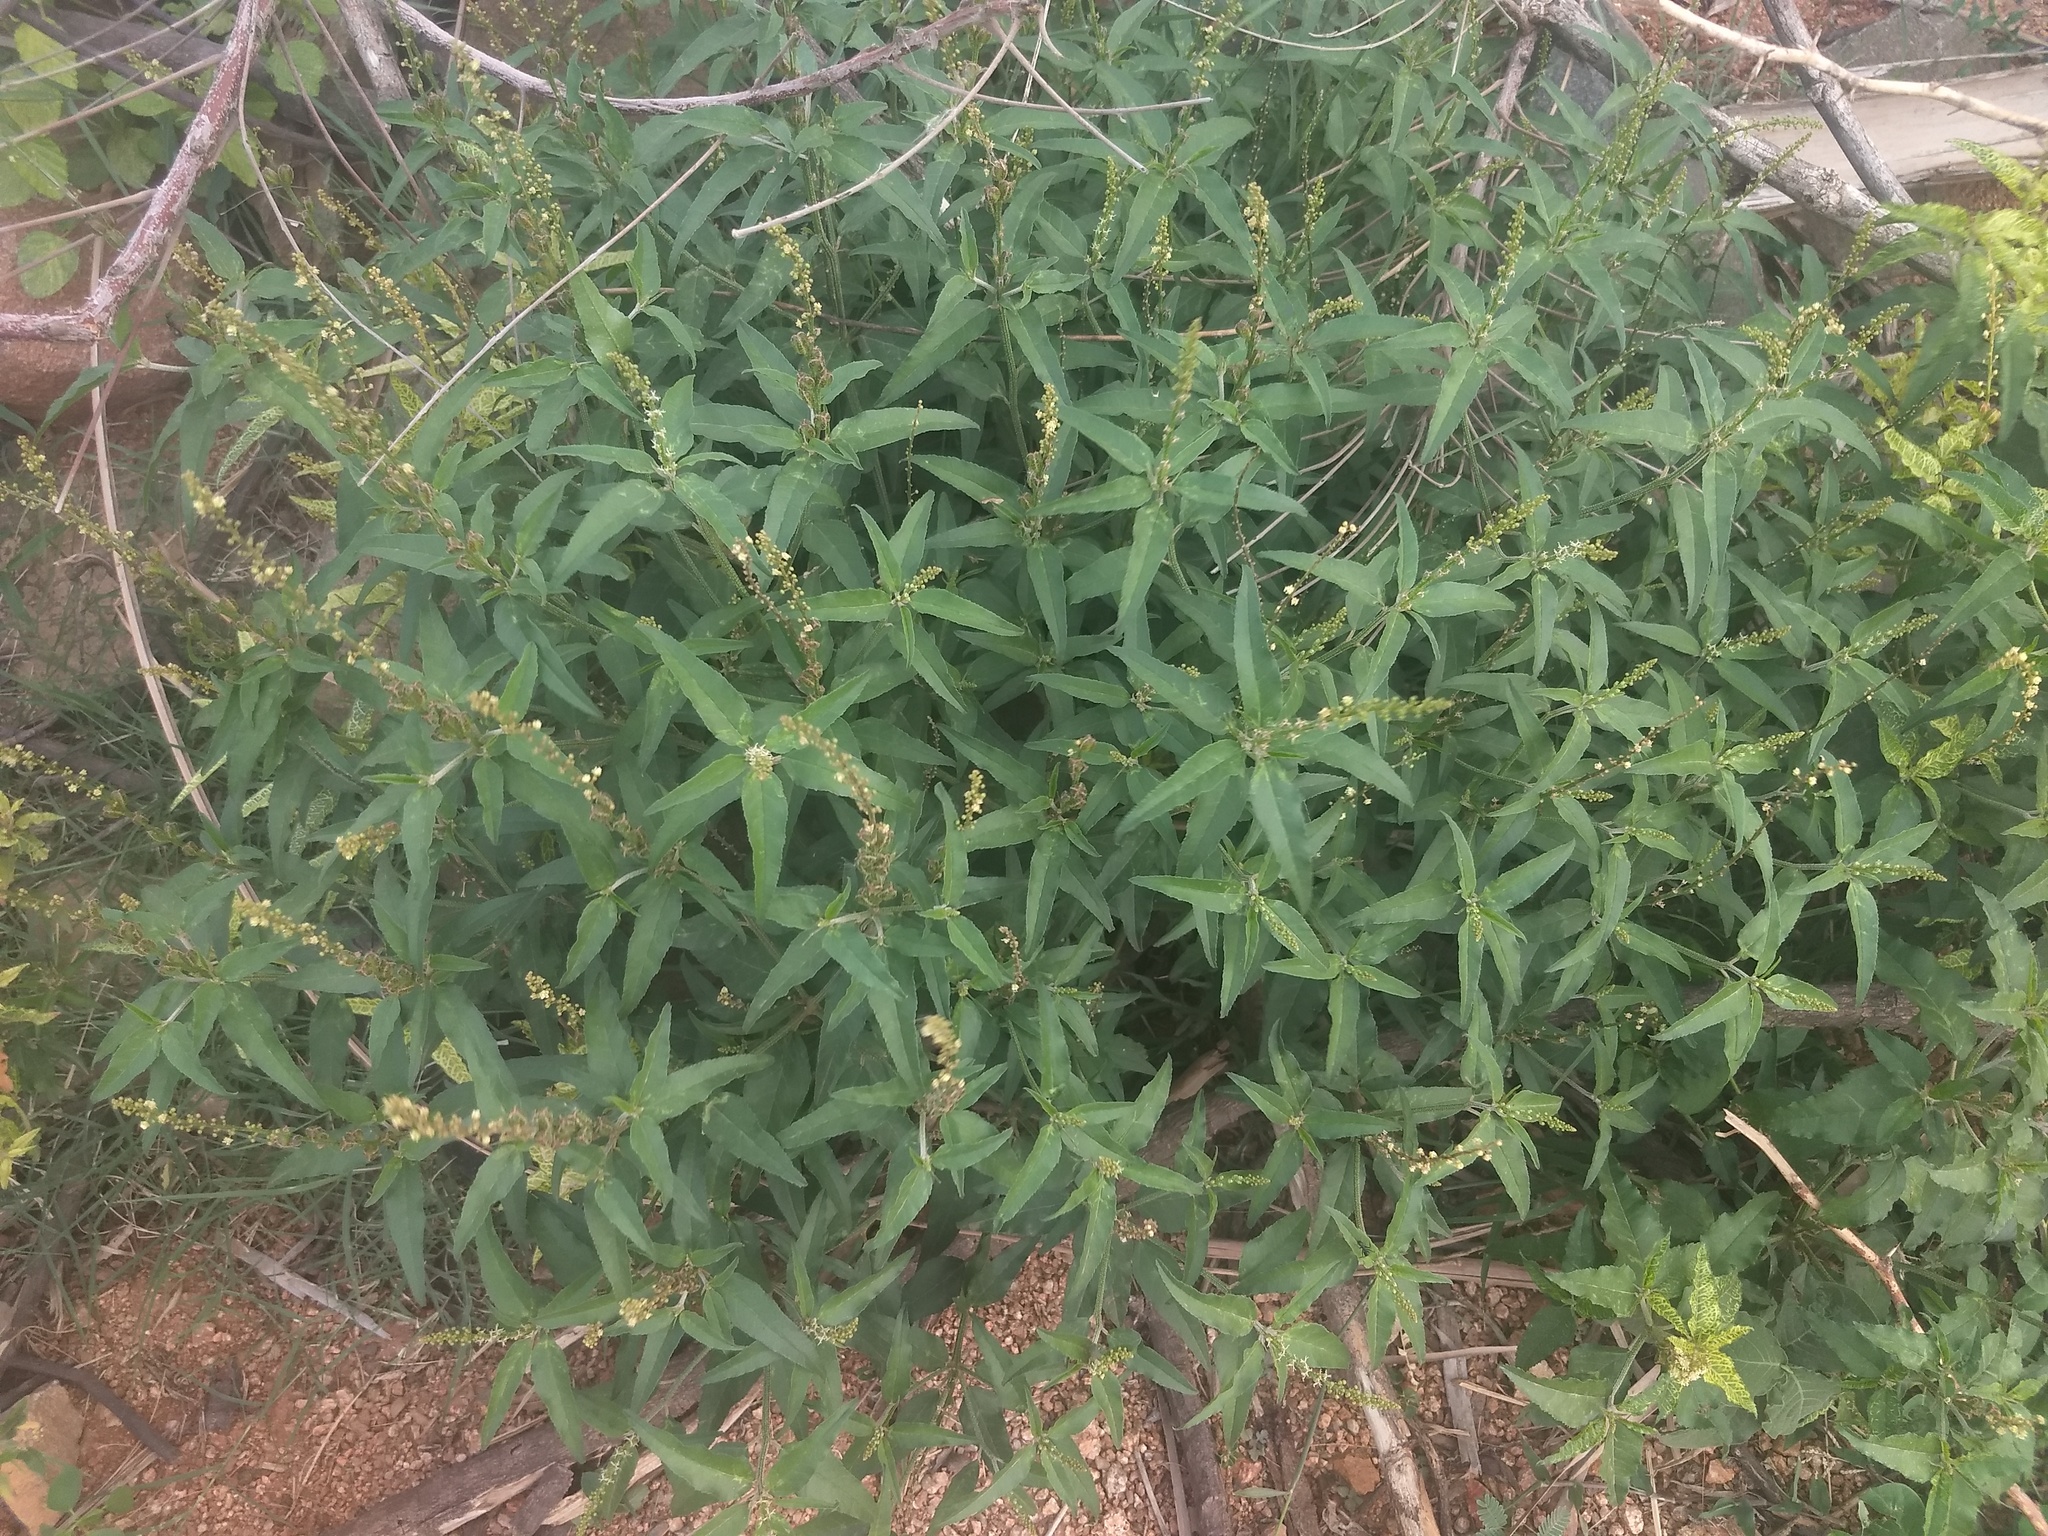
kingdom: Plantae
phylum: Tracheophyta
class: Magnoliopsida
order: Malpighiales
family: Euphorbiaceae
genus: Croton
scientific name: Croton bonplandianus
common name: Bonpland's croton
